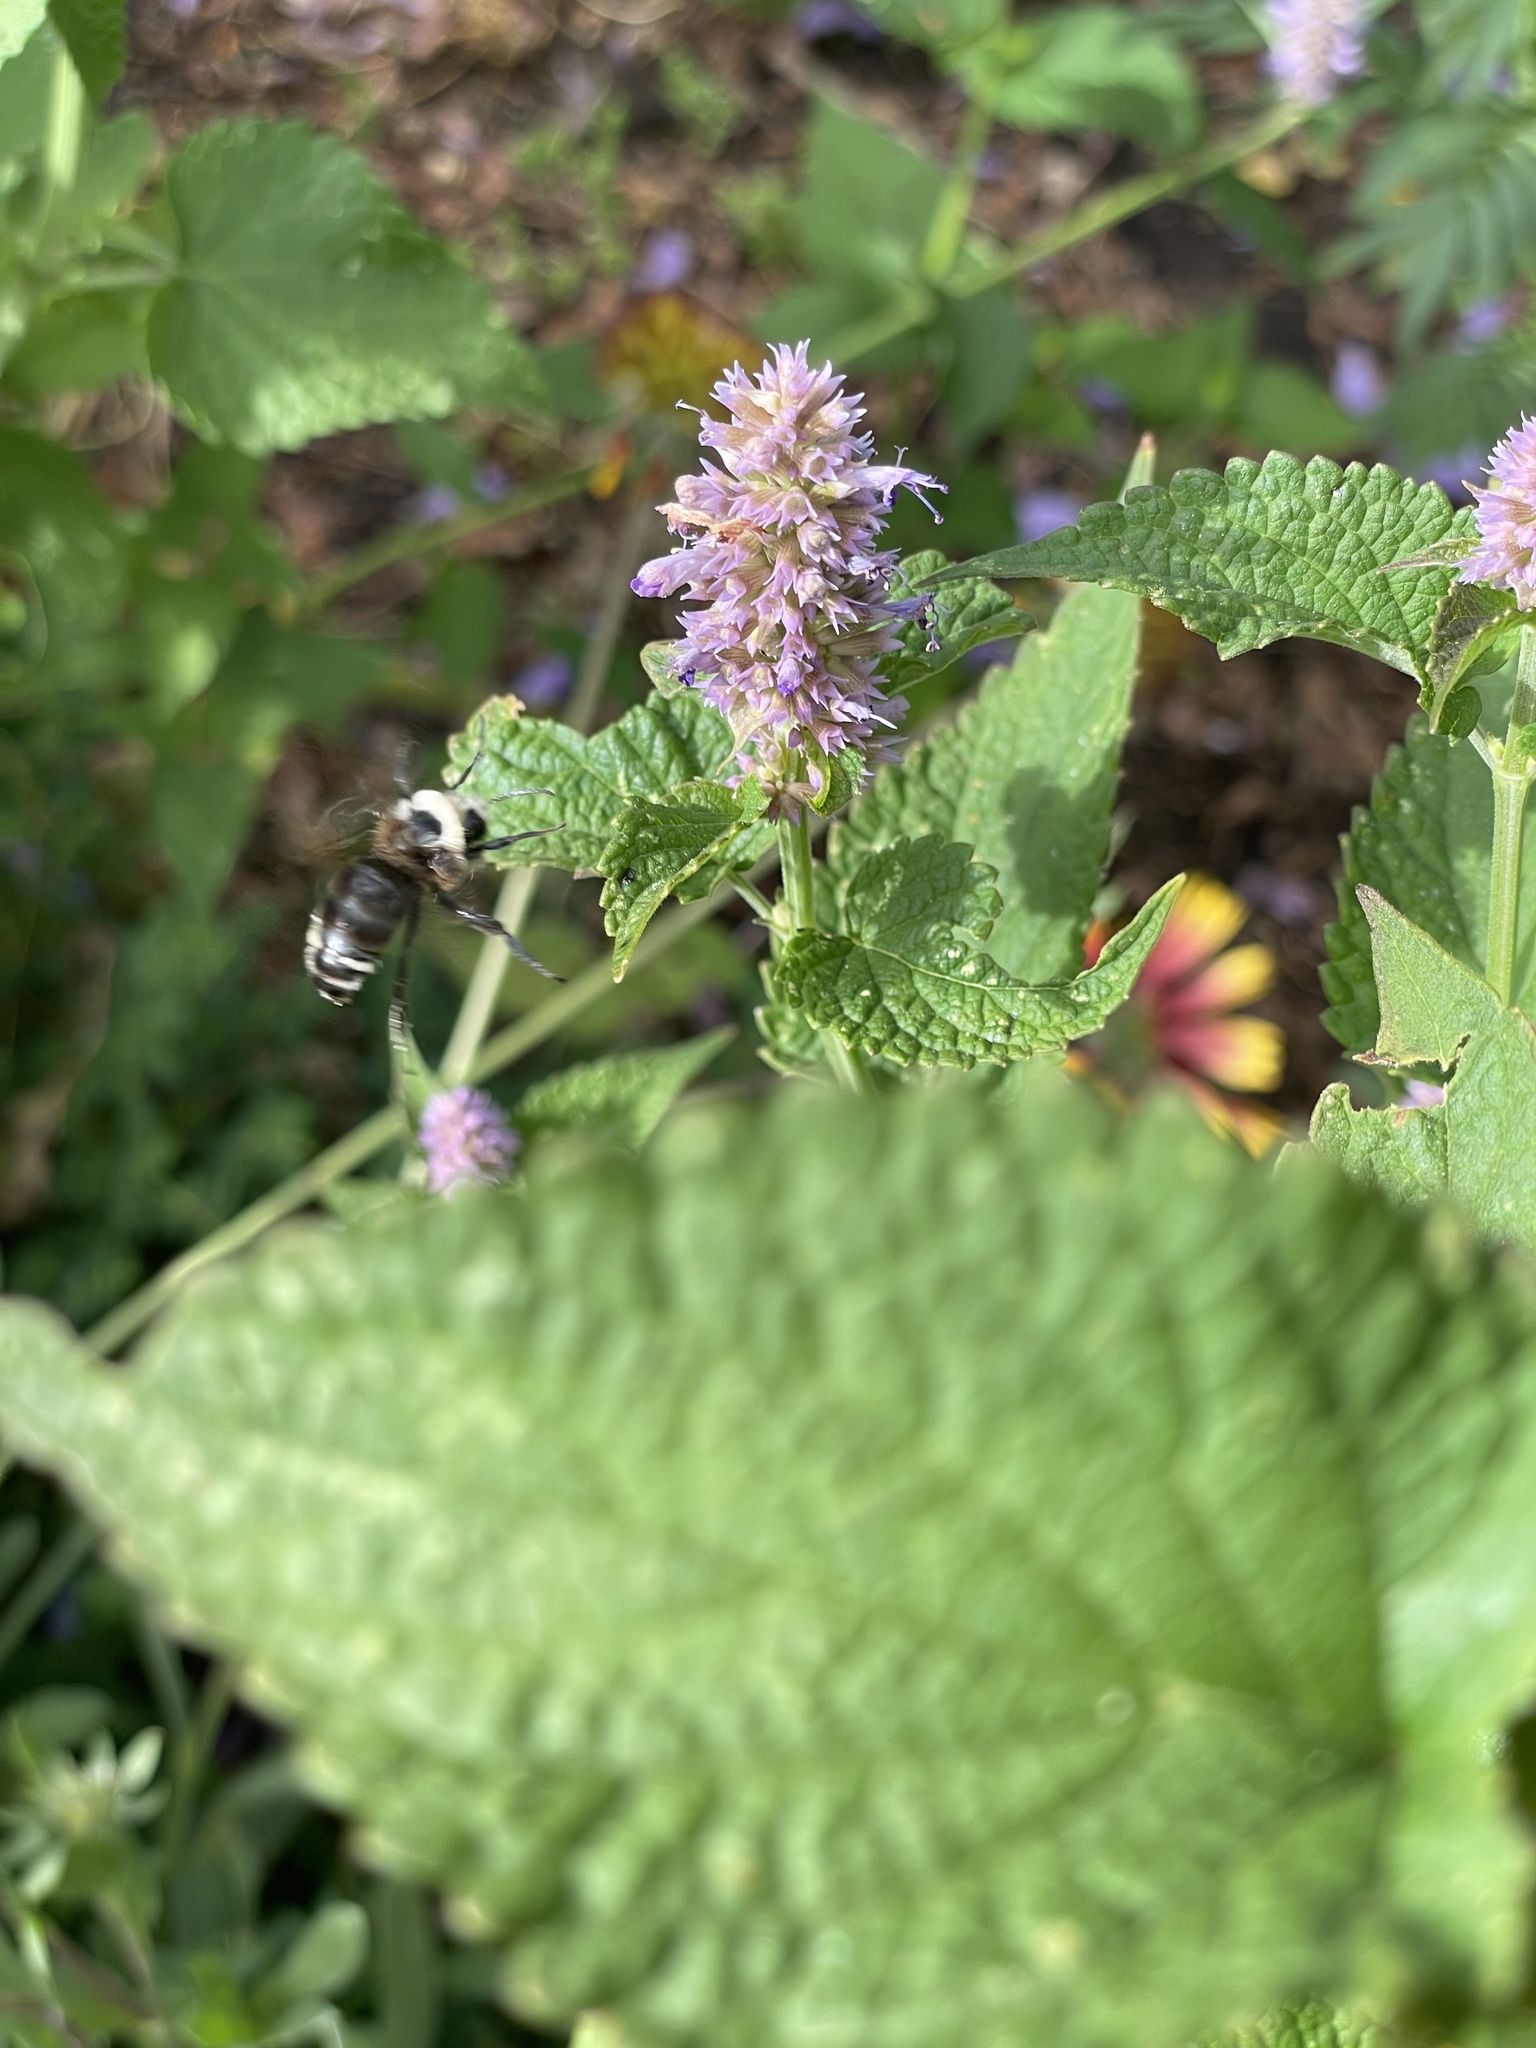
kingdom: Animalia
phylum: Arthropoda
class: Insecta
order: Hymenoptera
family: Apidae
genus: Bombus
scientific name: Bombus californicus
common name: California bumble bee
